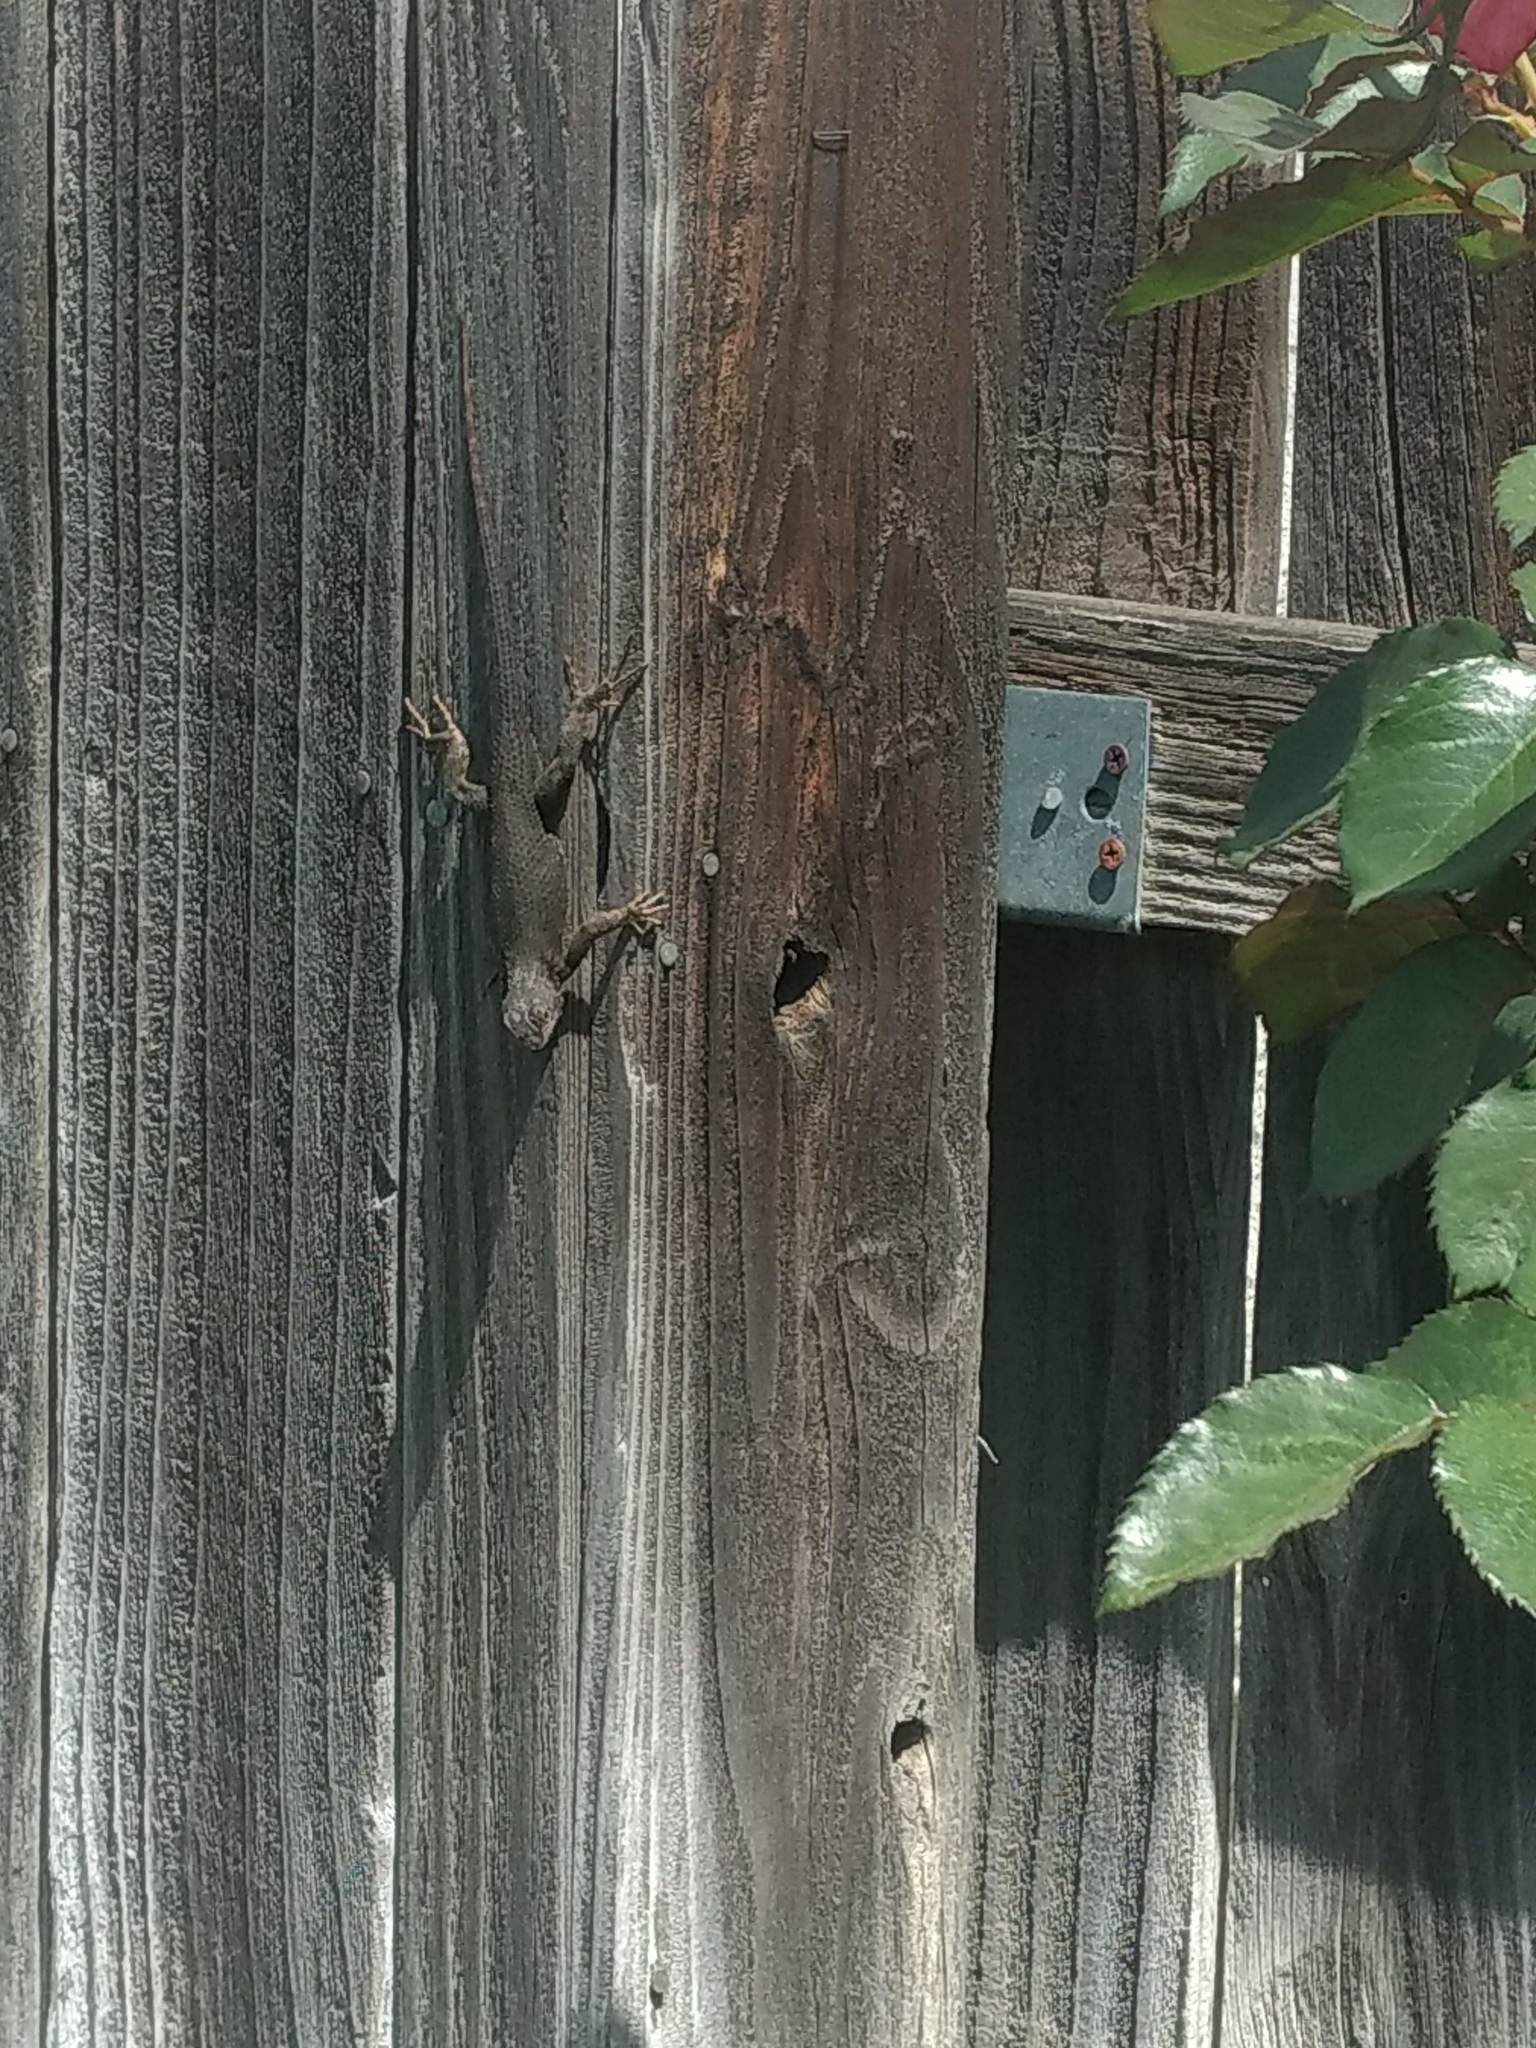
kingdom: Animalia
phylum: Chordata
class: Squamata
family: Phrynosomatidae
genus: Sceloporus
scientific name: Sceloporus occidentalis
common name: Western fence lizard
